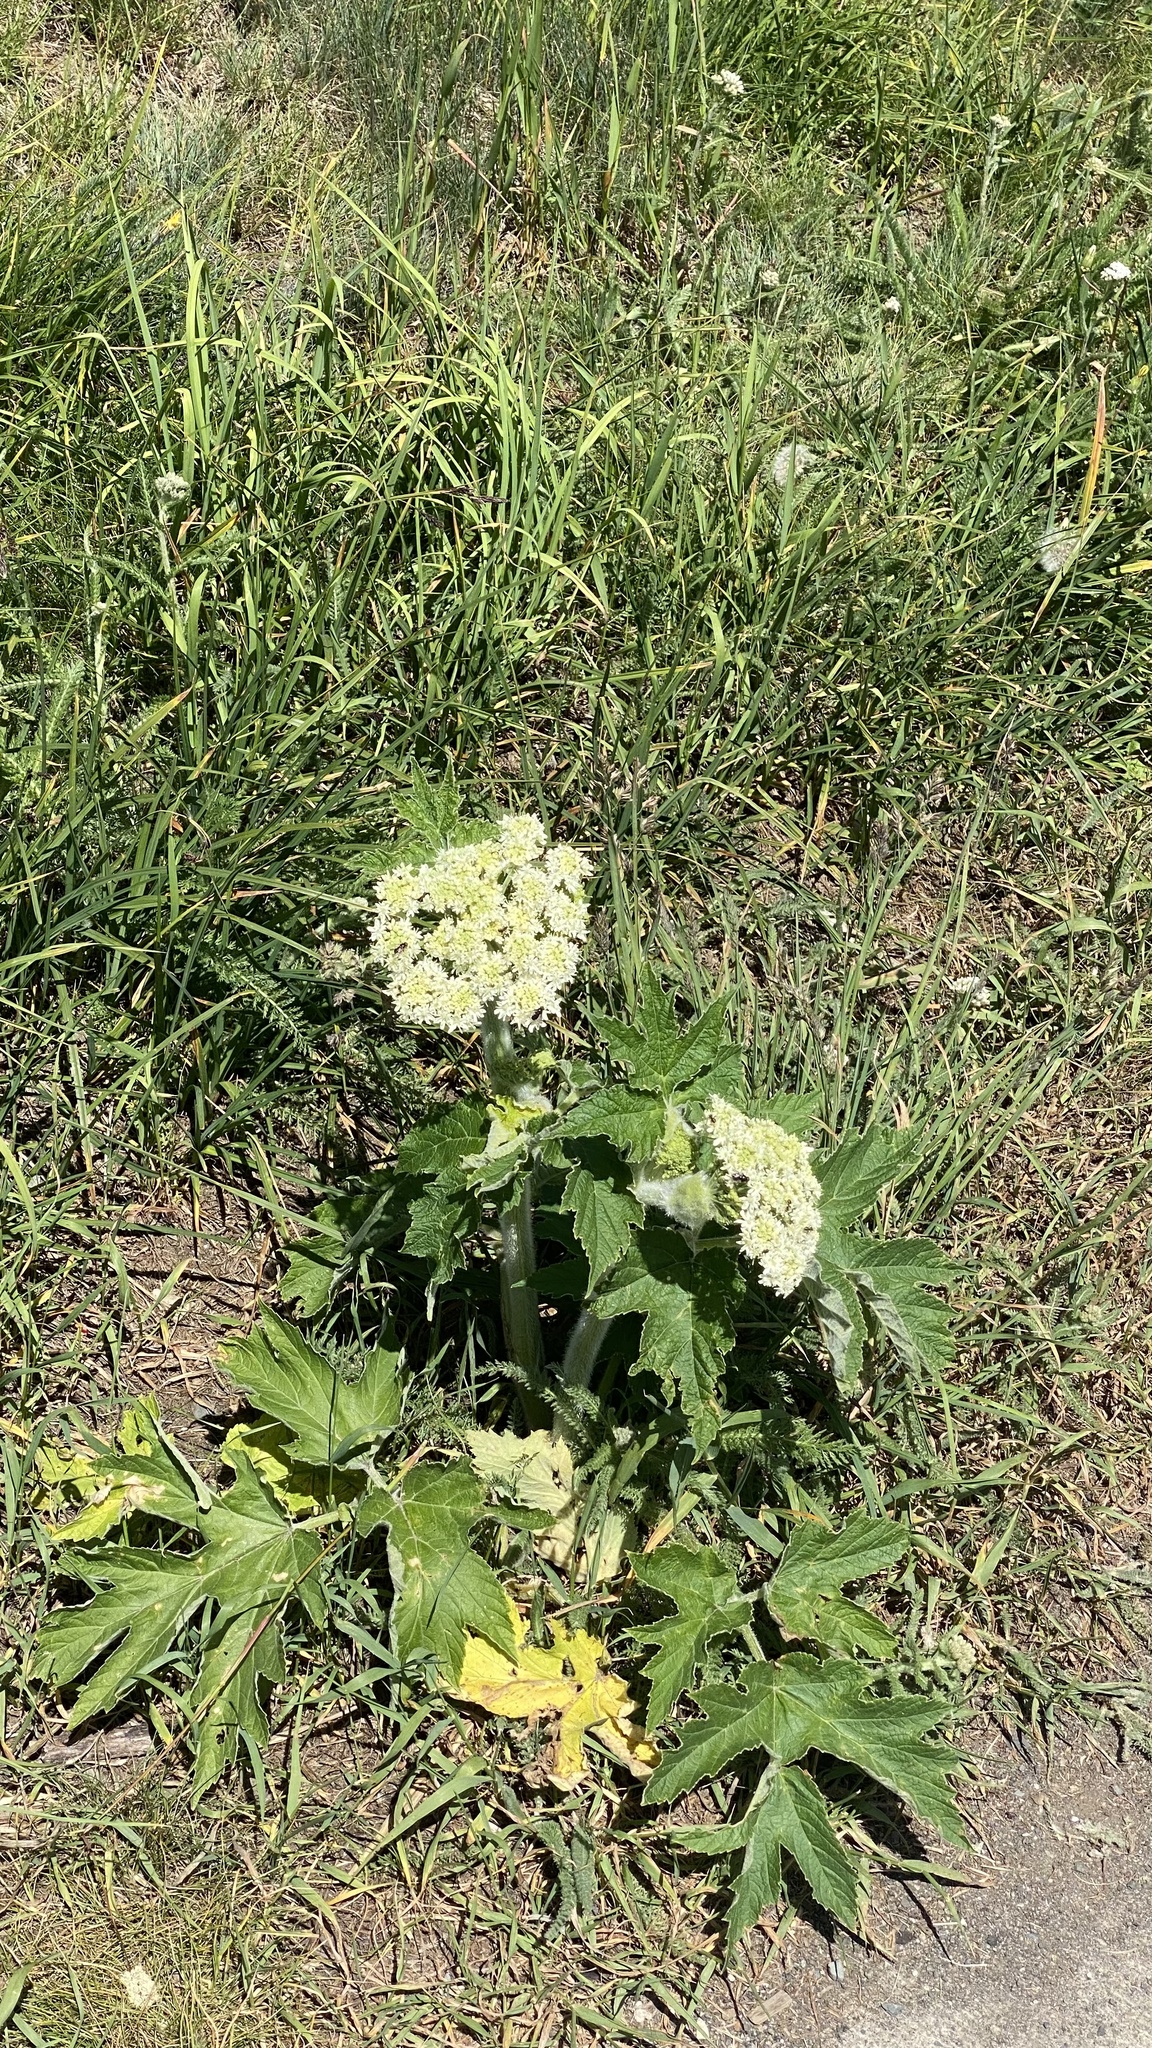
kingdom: Plantae
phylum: Tracheophyta
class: Magnoliopsida
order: Apiales
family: Apiaceae
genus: Heracleum
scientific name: Heracleum maximum
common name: American cow parsnip
